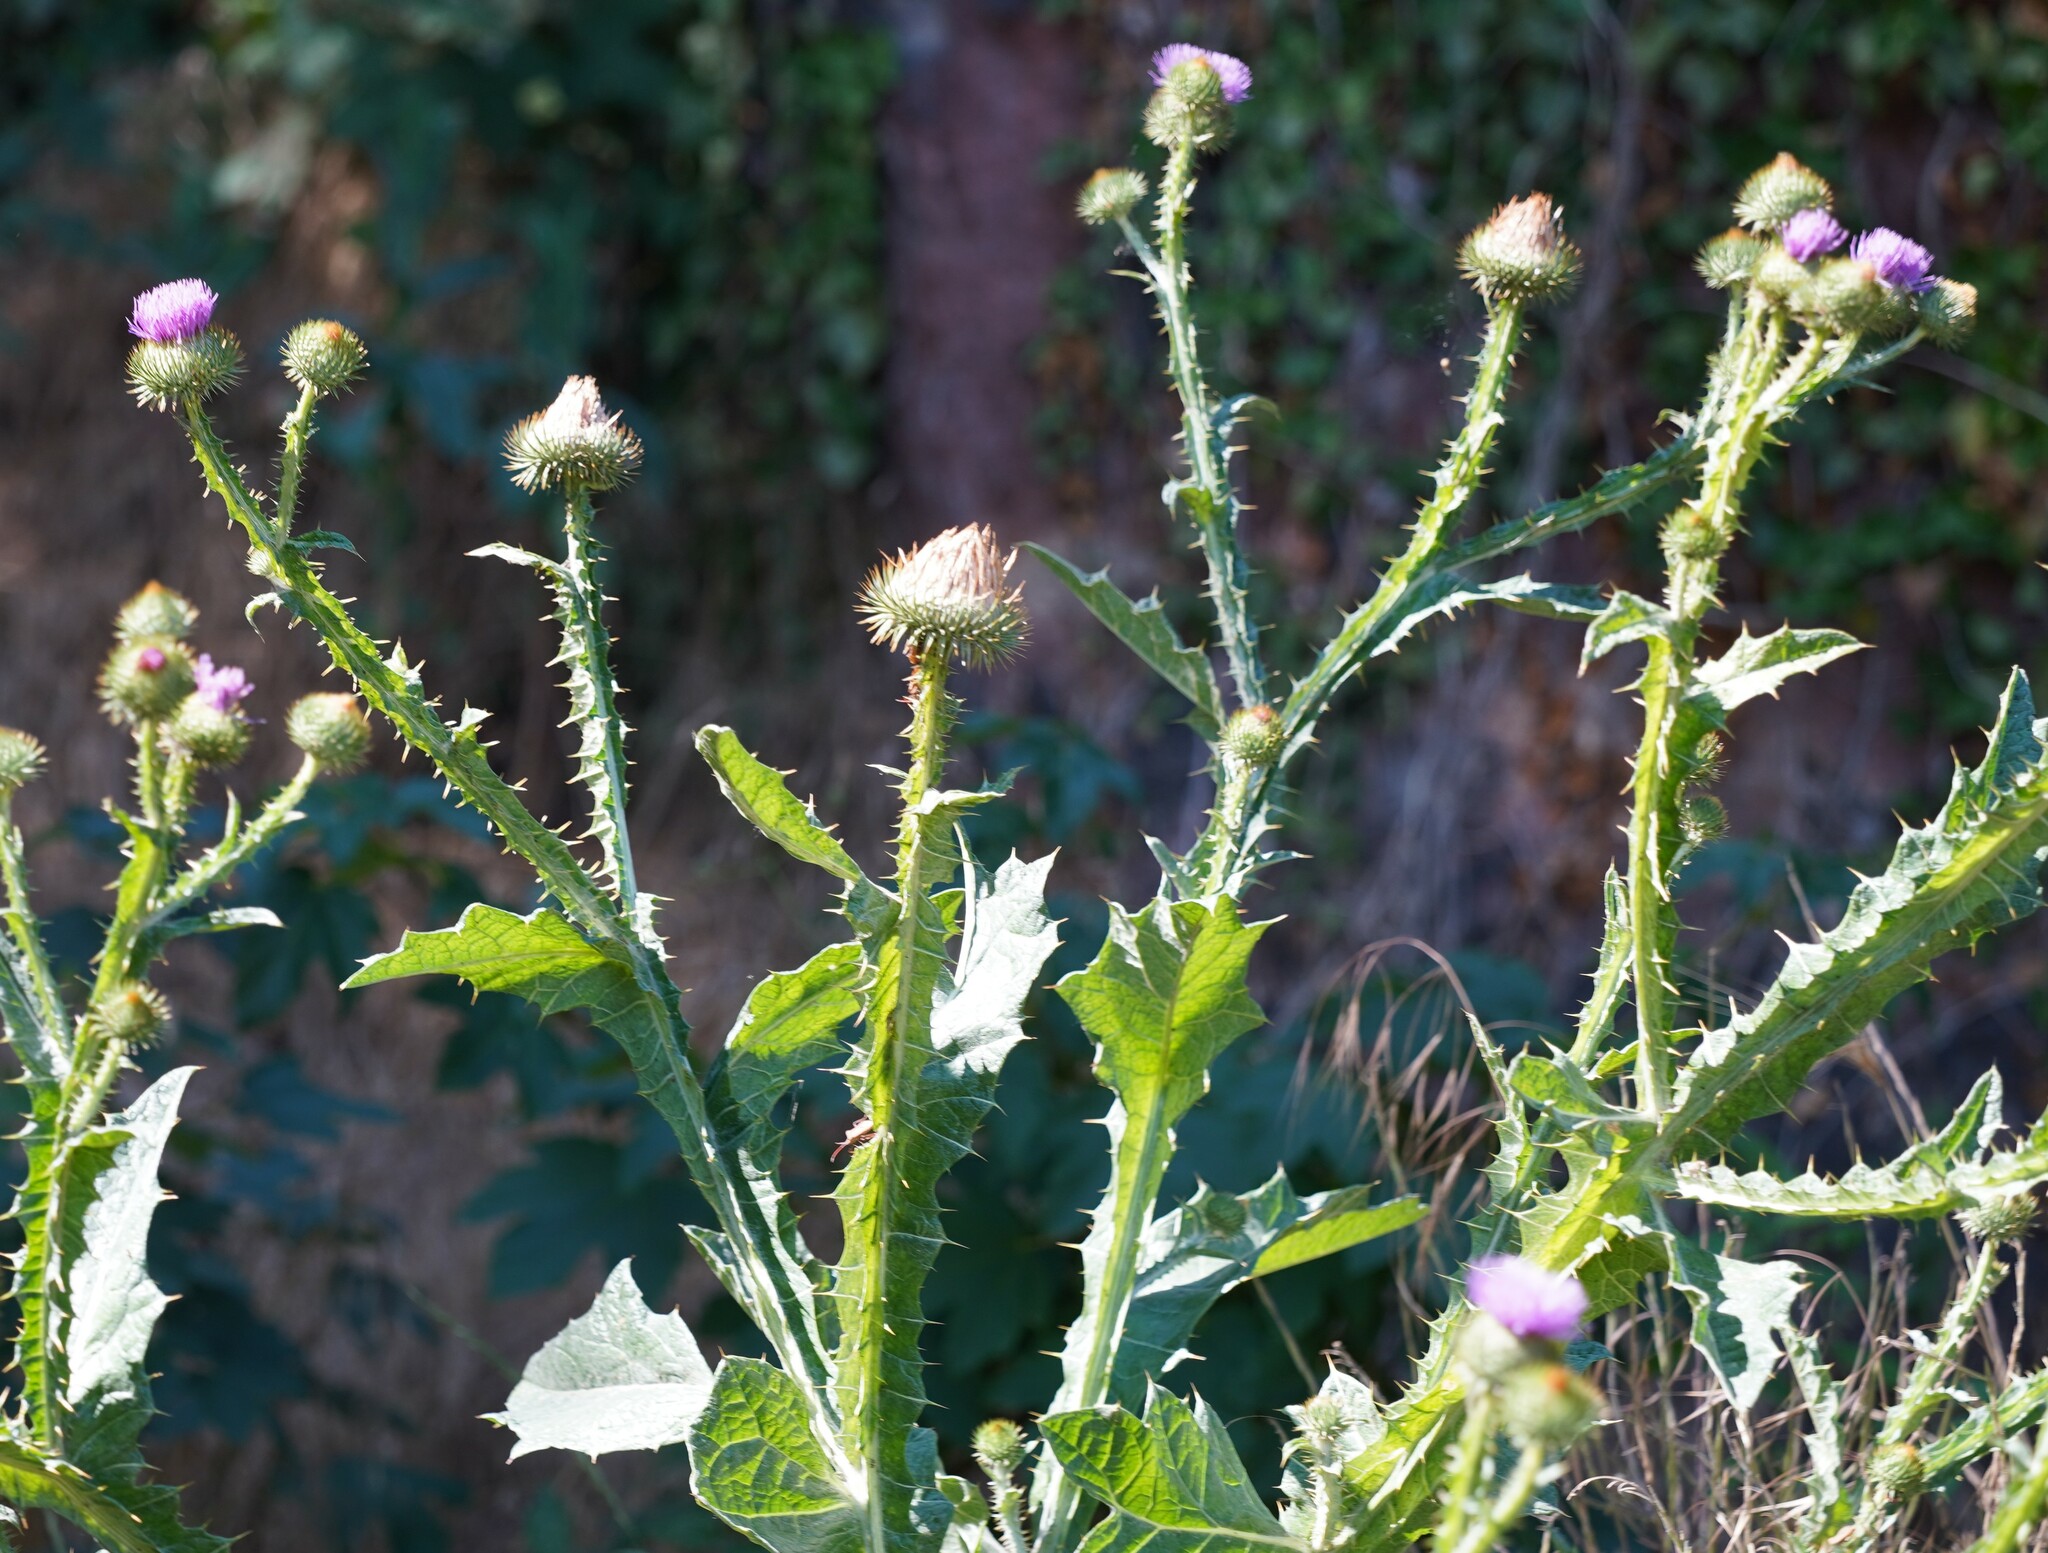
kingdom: Plantae
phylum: Tracheophyta
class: Magnoliopsida
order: Asterales
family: Asteraceae
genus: Onopordum
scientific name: Onopordum acanthium
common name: Scotch thistle
